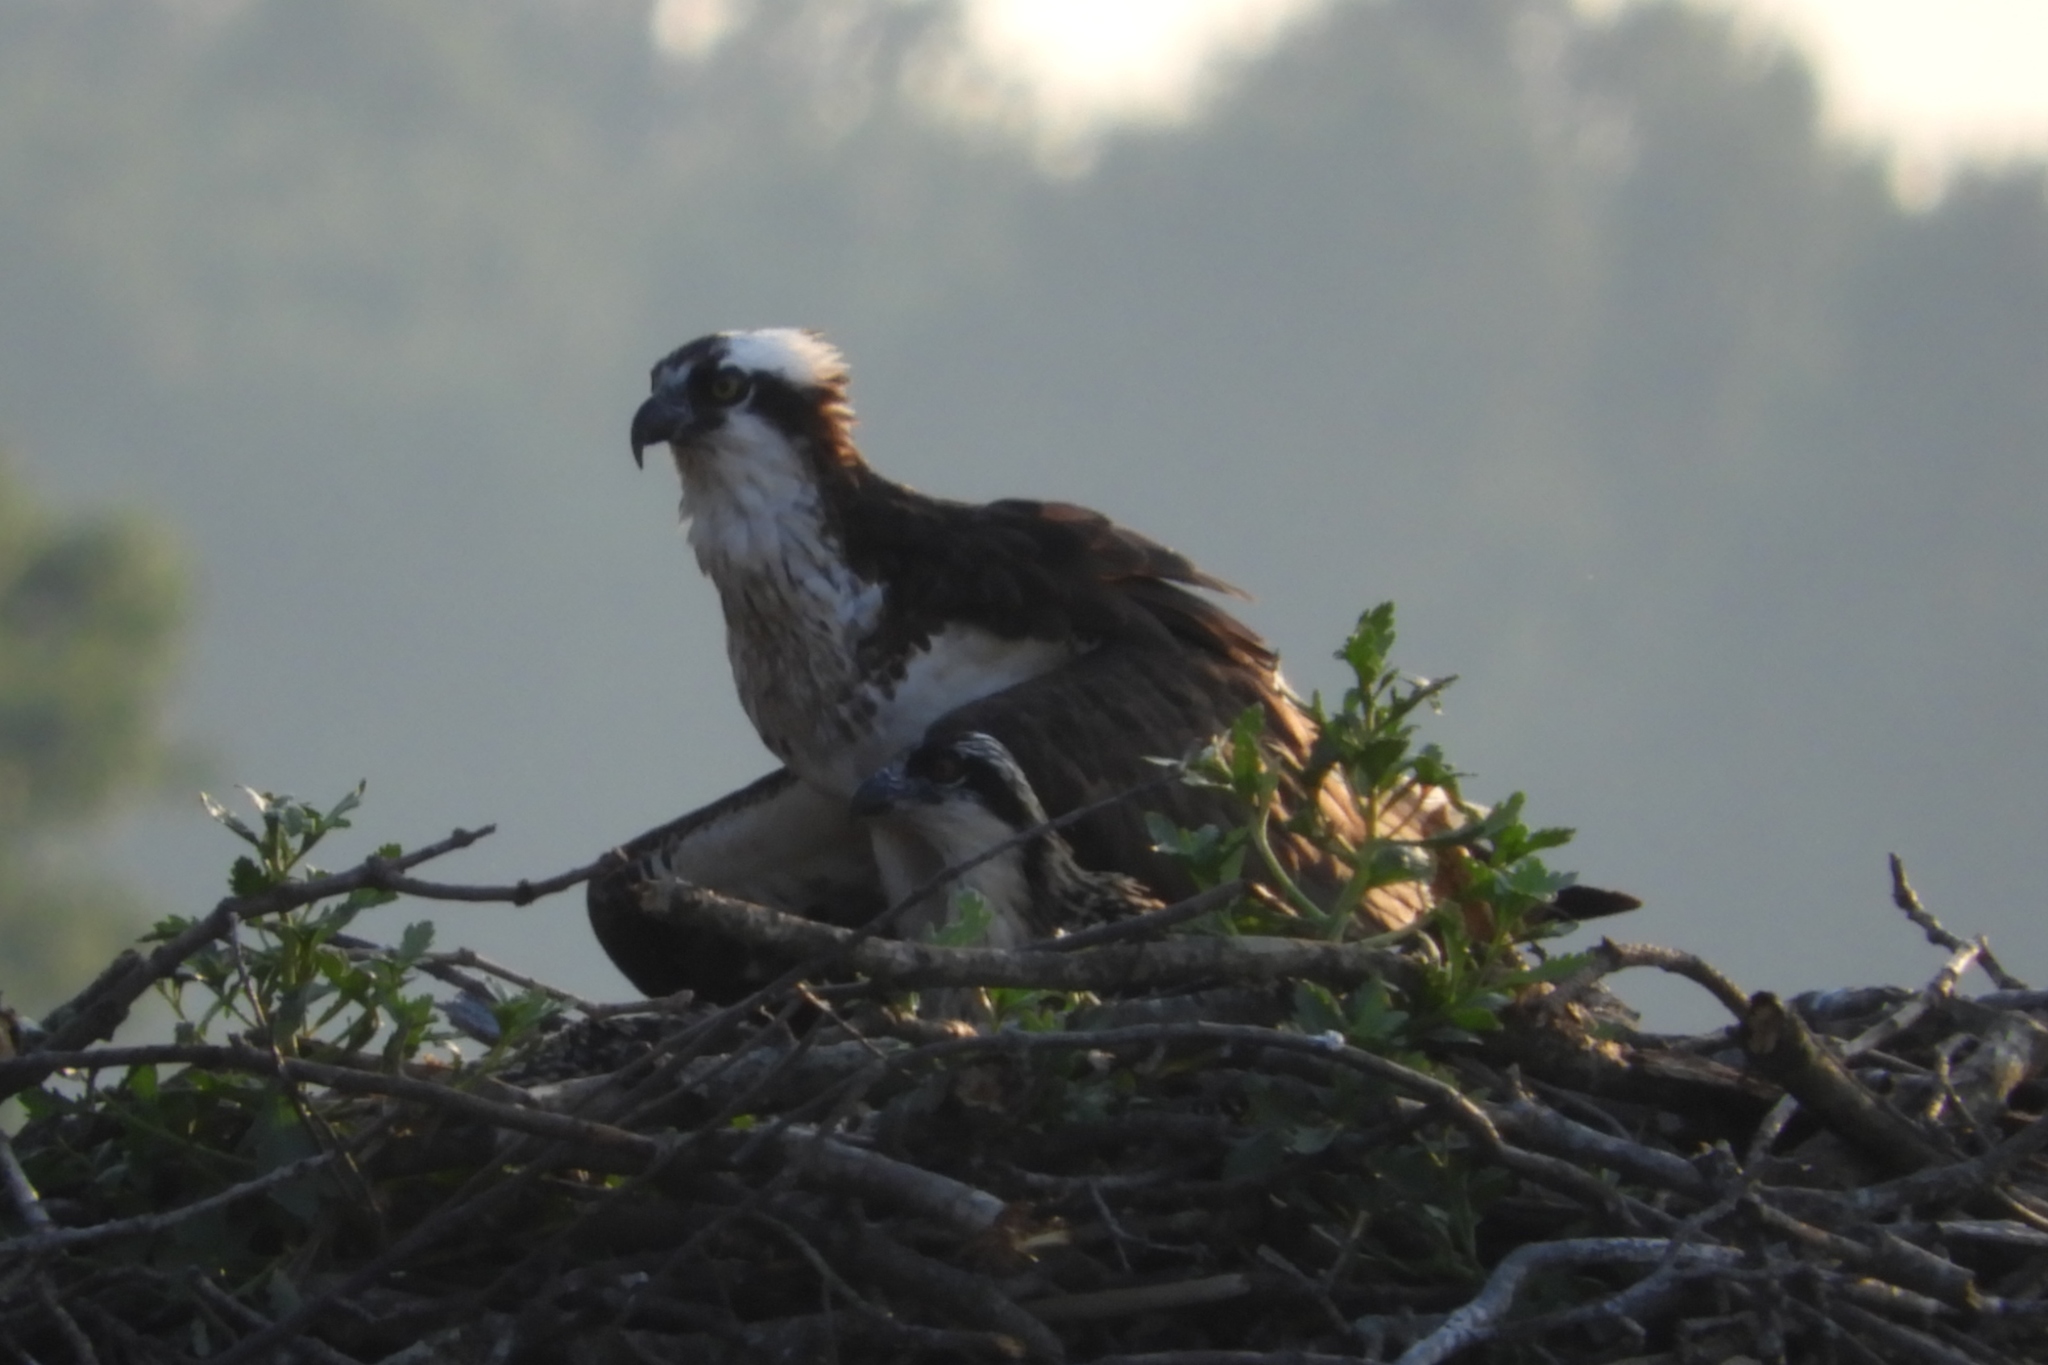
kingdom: Animalia
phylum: Chordata
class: Aves
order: Accipitriformes
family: Pandionidae
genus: Pandion
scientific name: Pandion haliaetus
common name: Osprey
